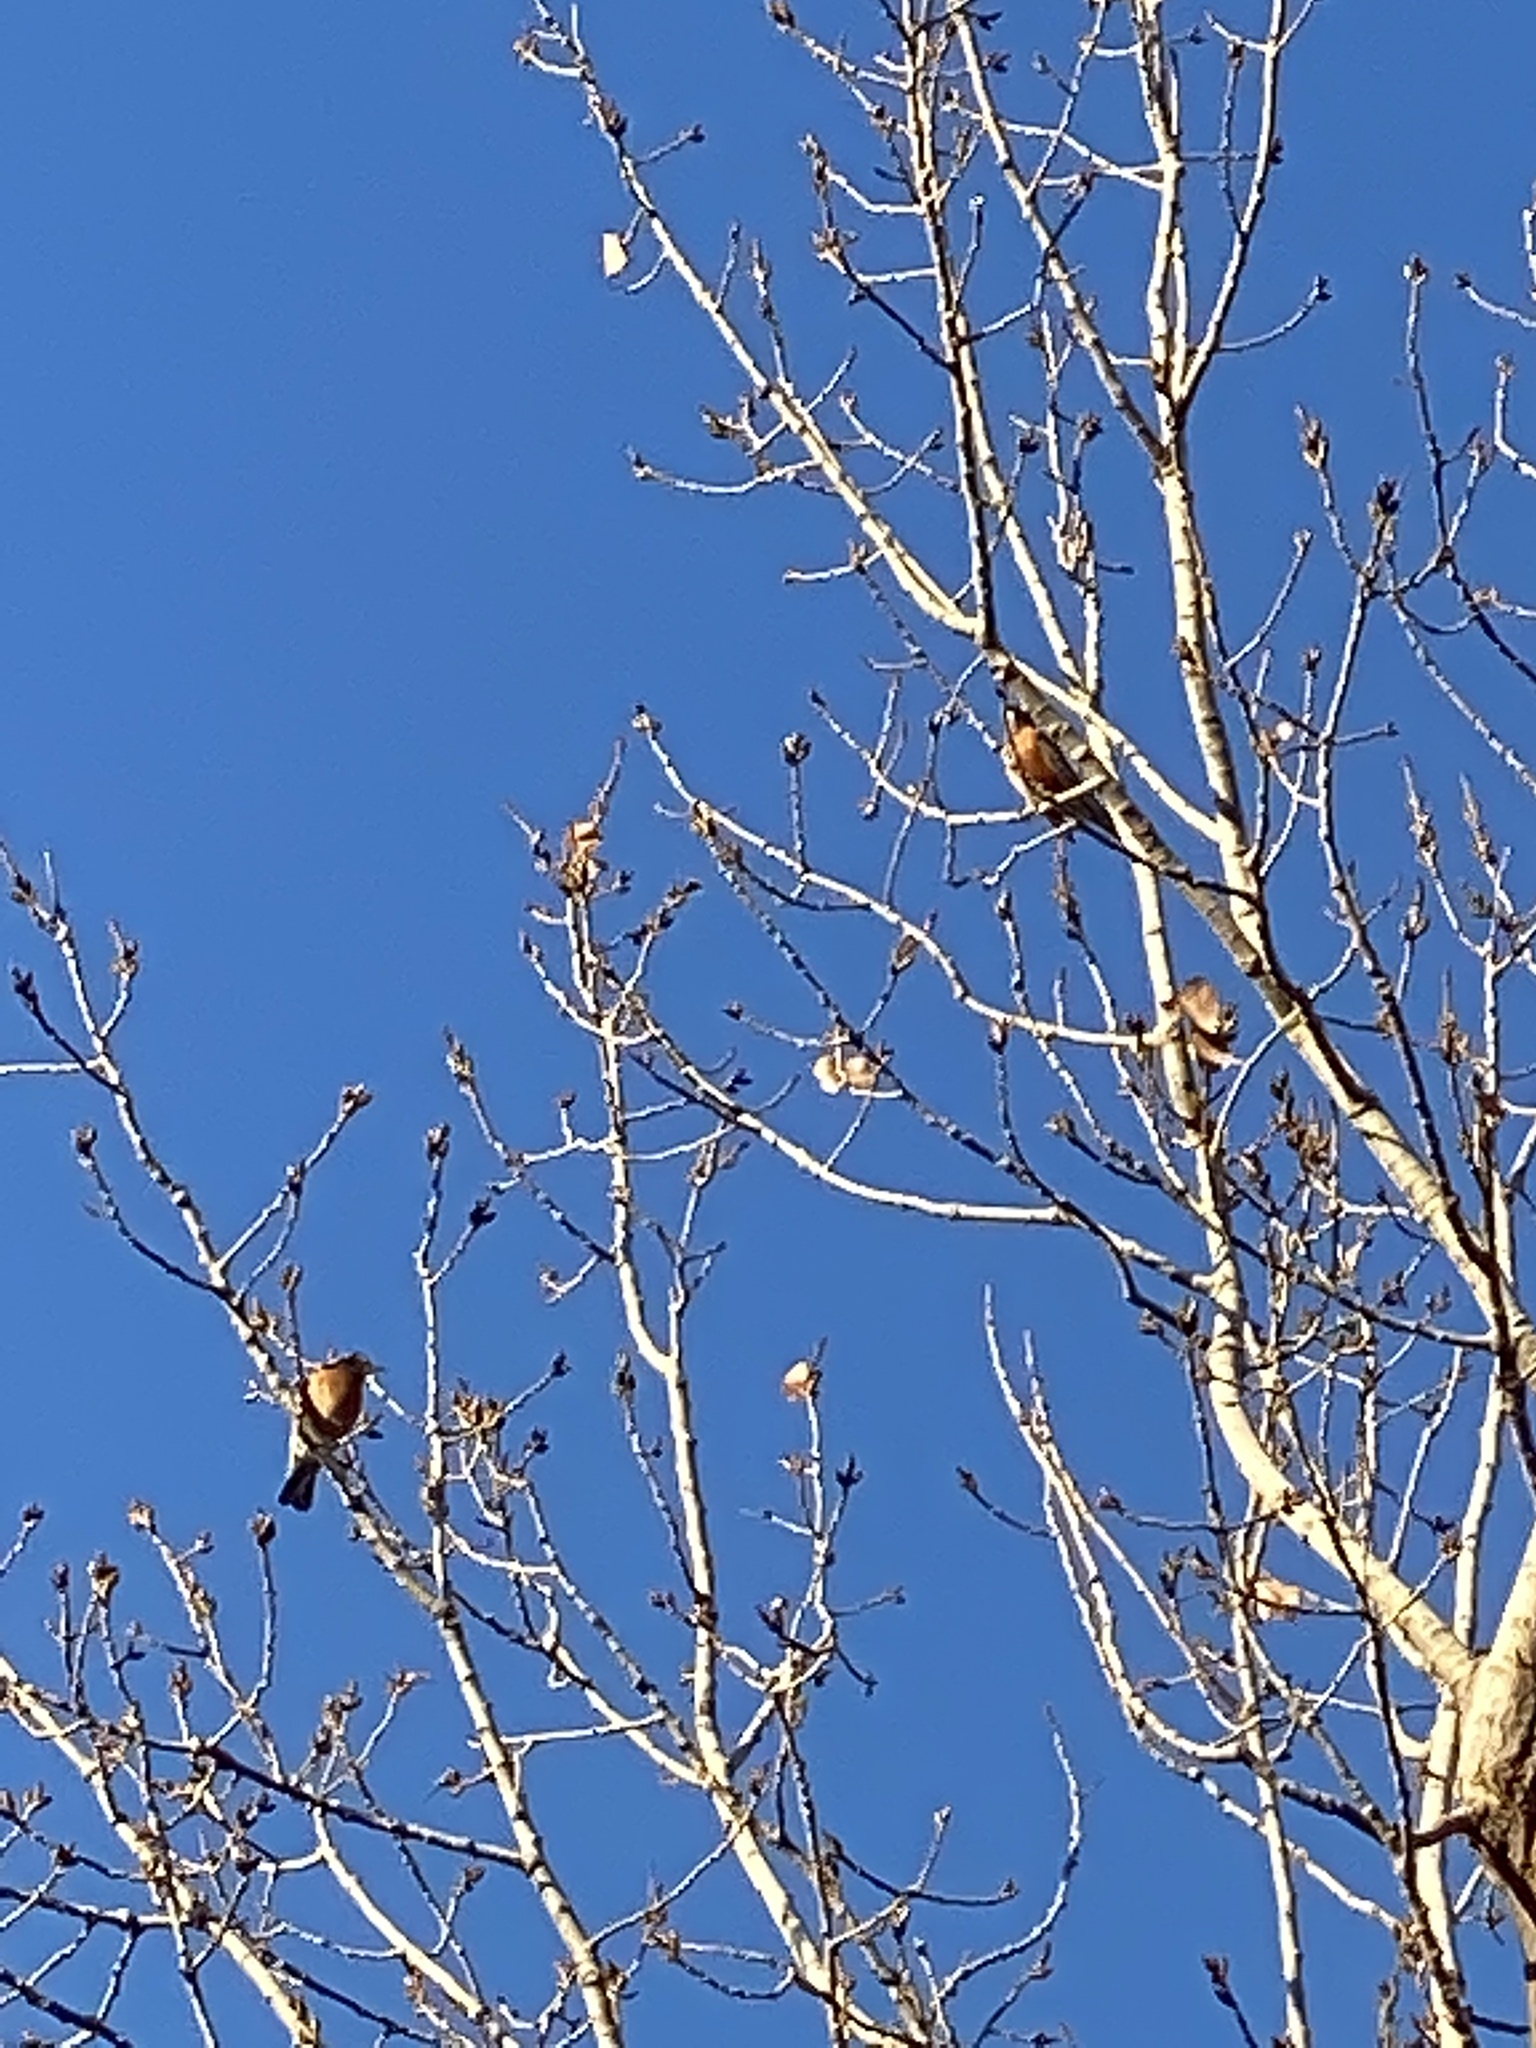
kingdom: Animalia
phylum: Chordata
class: Aves
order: Passeriformes
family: Turdidae
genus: Turdus
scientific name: Turdus migratorius
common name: American robin
